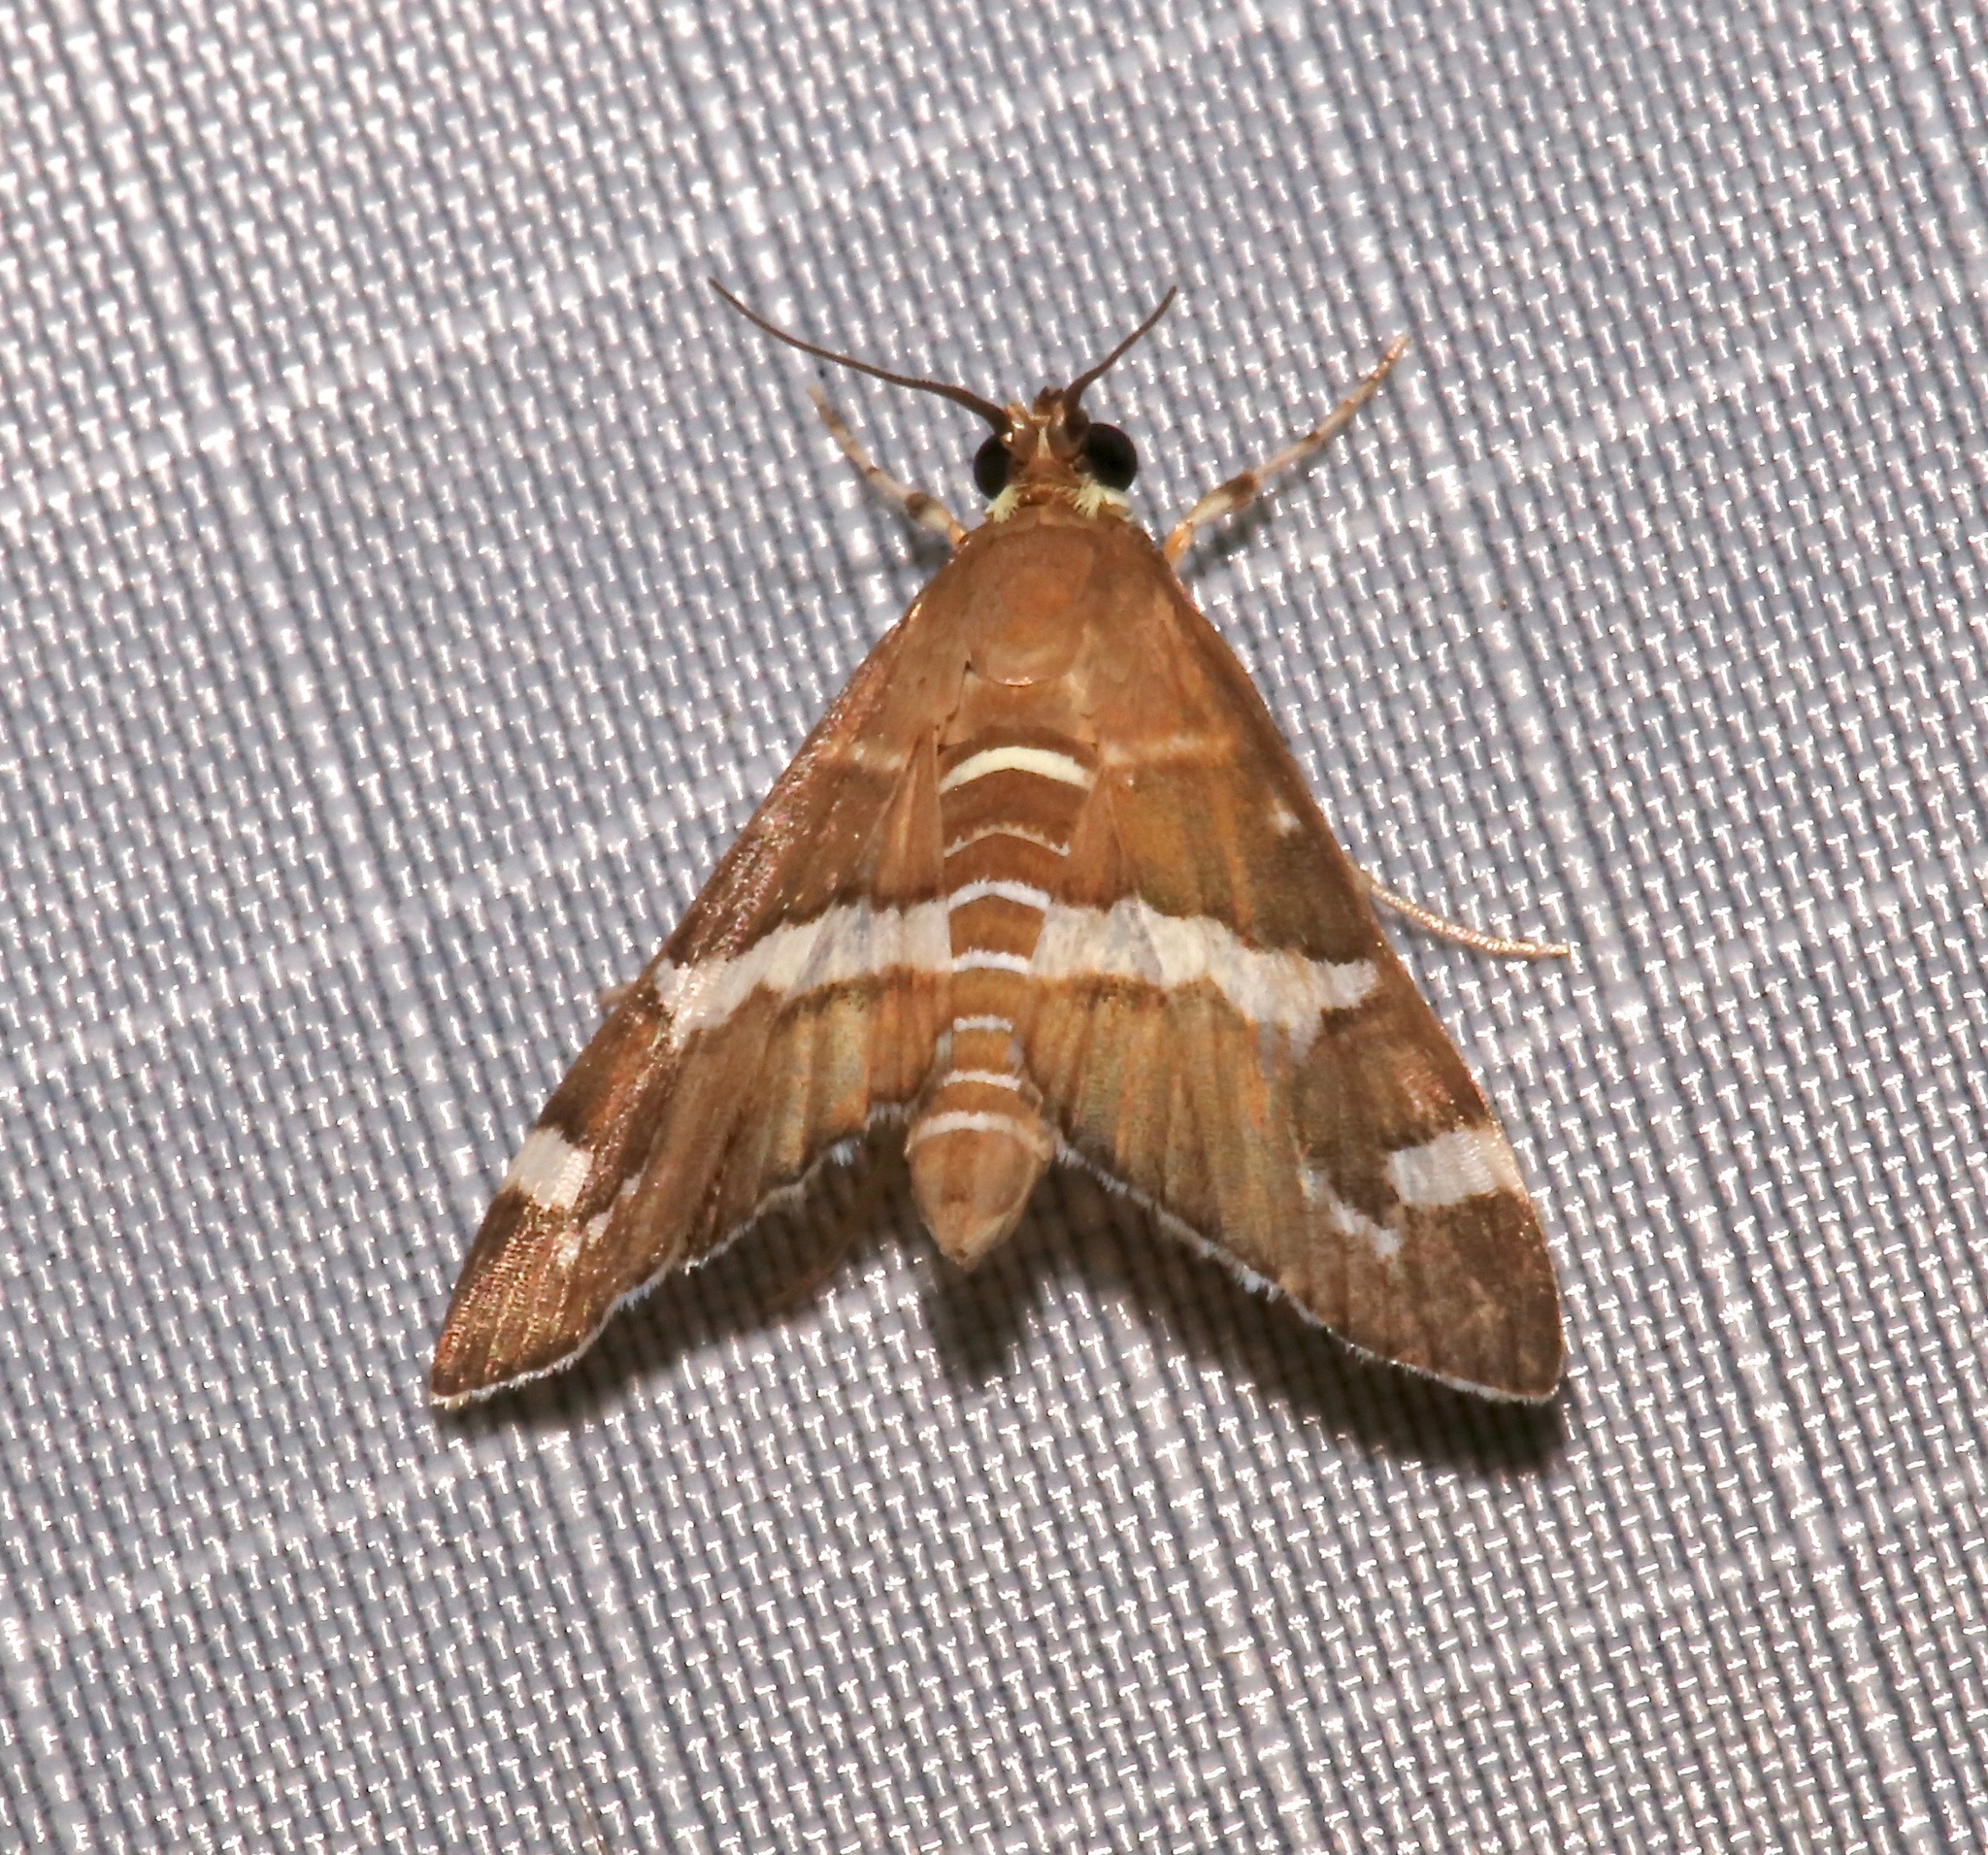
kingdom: Animalia
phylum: Arthropoda
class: Insecta
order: Lepidoptera
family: Crambidae
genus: Spoladea
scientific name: Spoladea recurvalis
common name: Beet webworm moth
